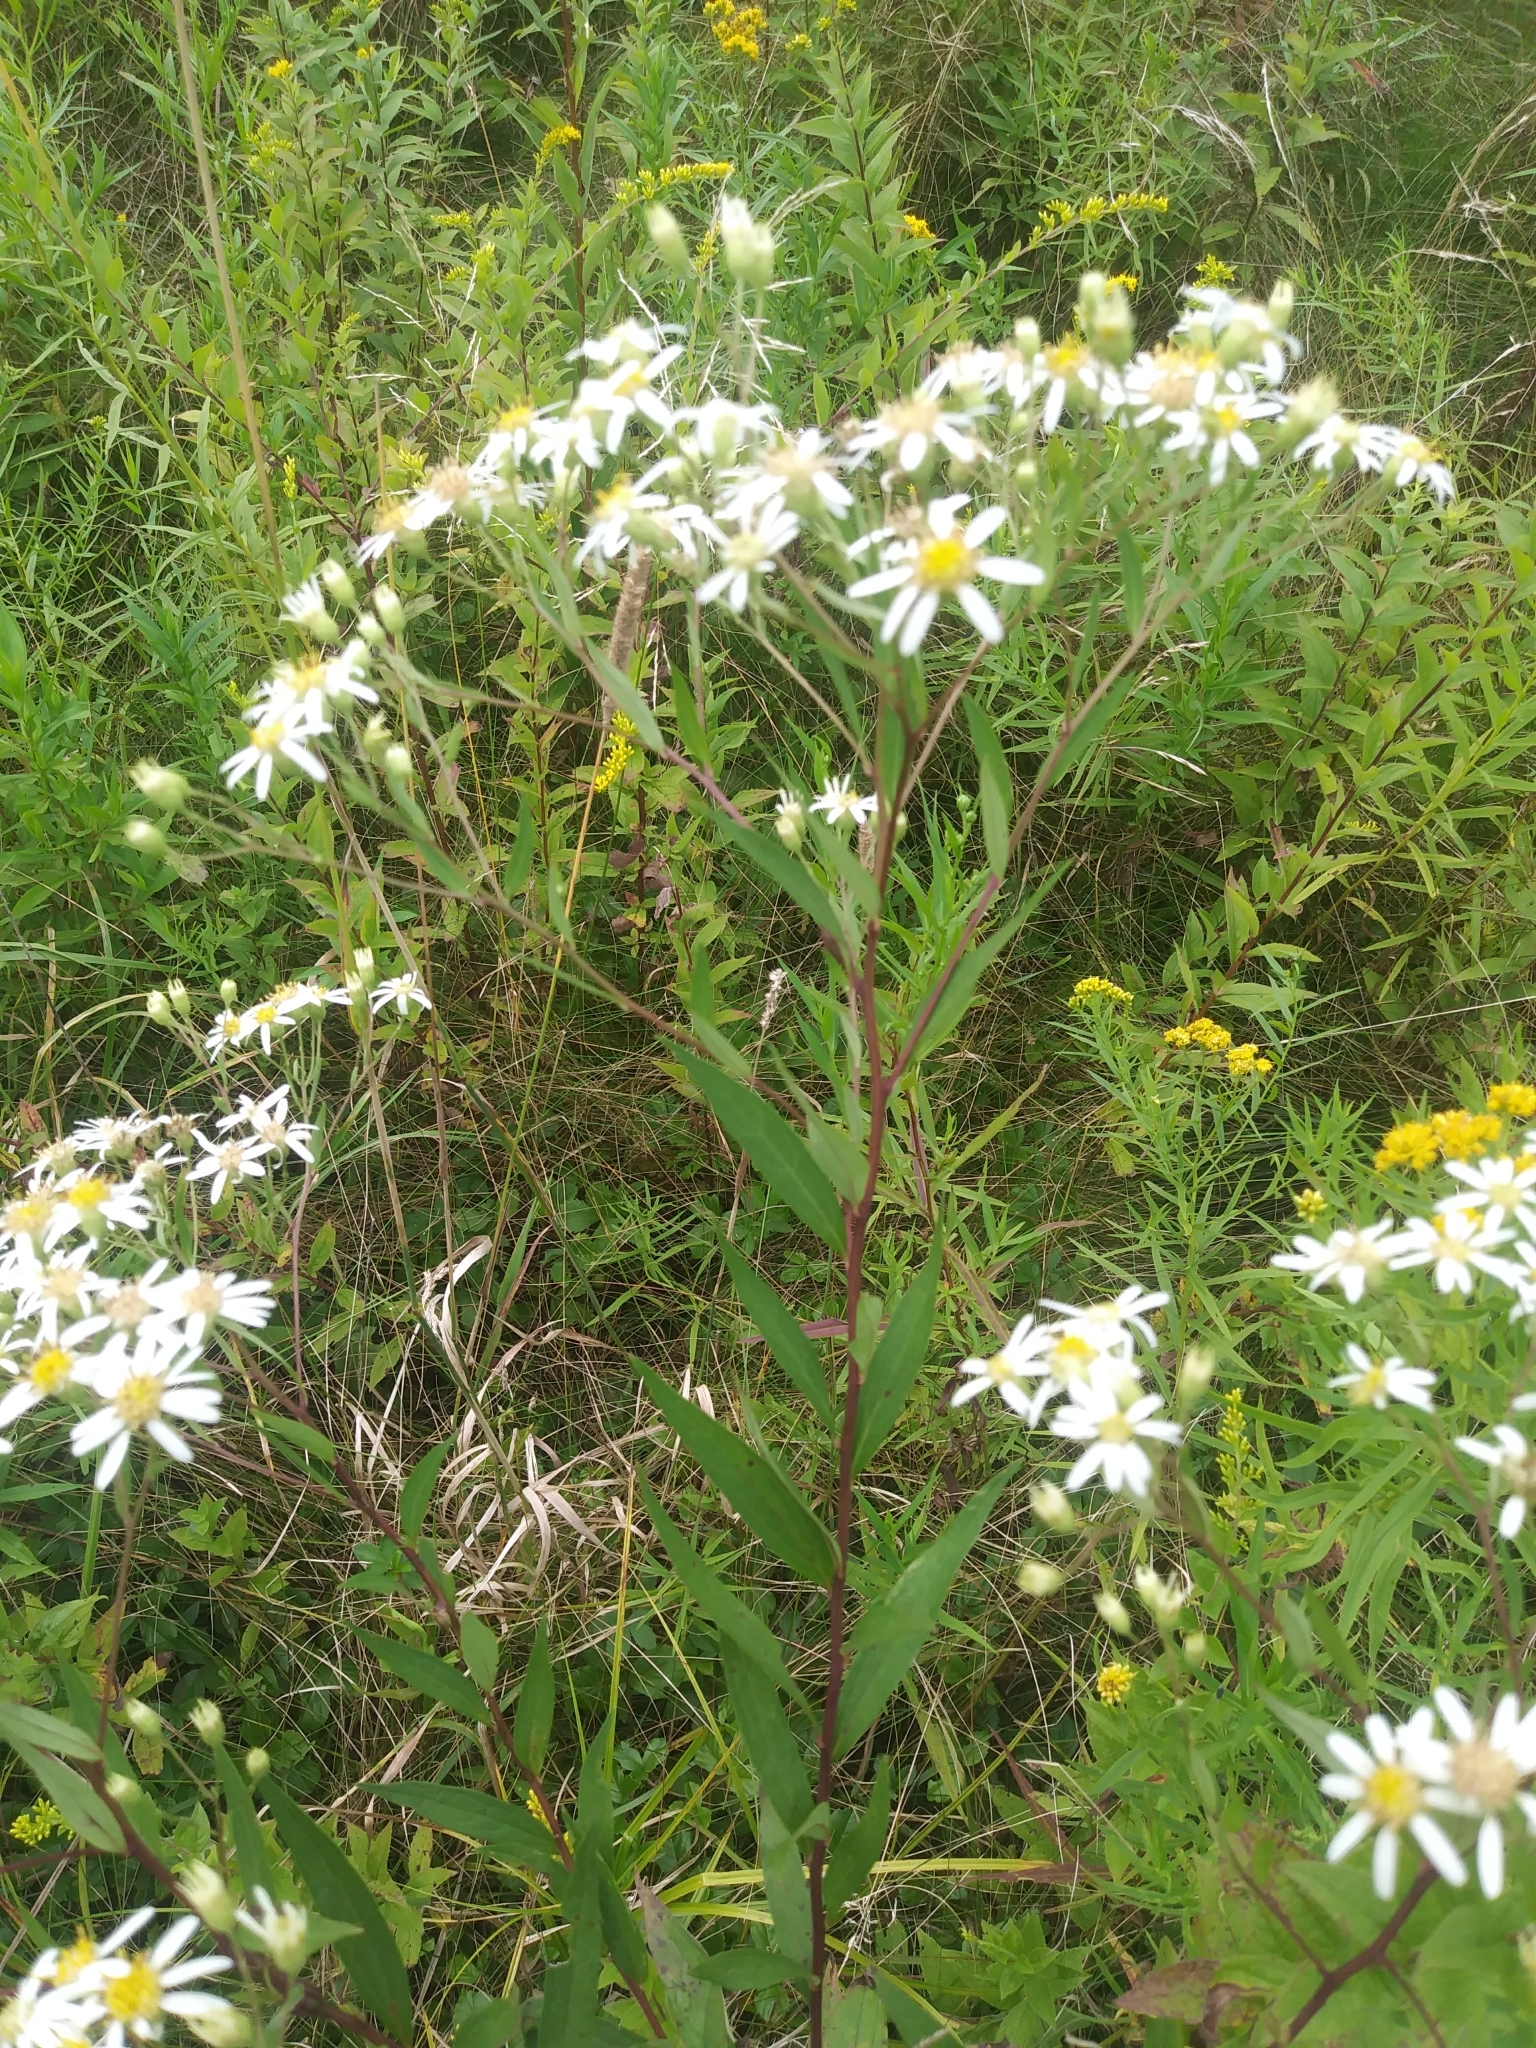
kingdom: Plantae
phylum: Tracheophyta
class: Magnoliopsida
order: Asterales
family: Asteraceae
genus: Doellingeria
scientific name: Doellingeria umbellata
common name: Flat-top white aster
